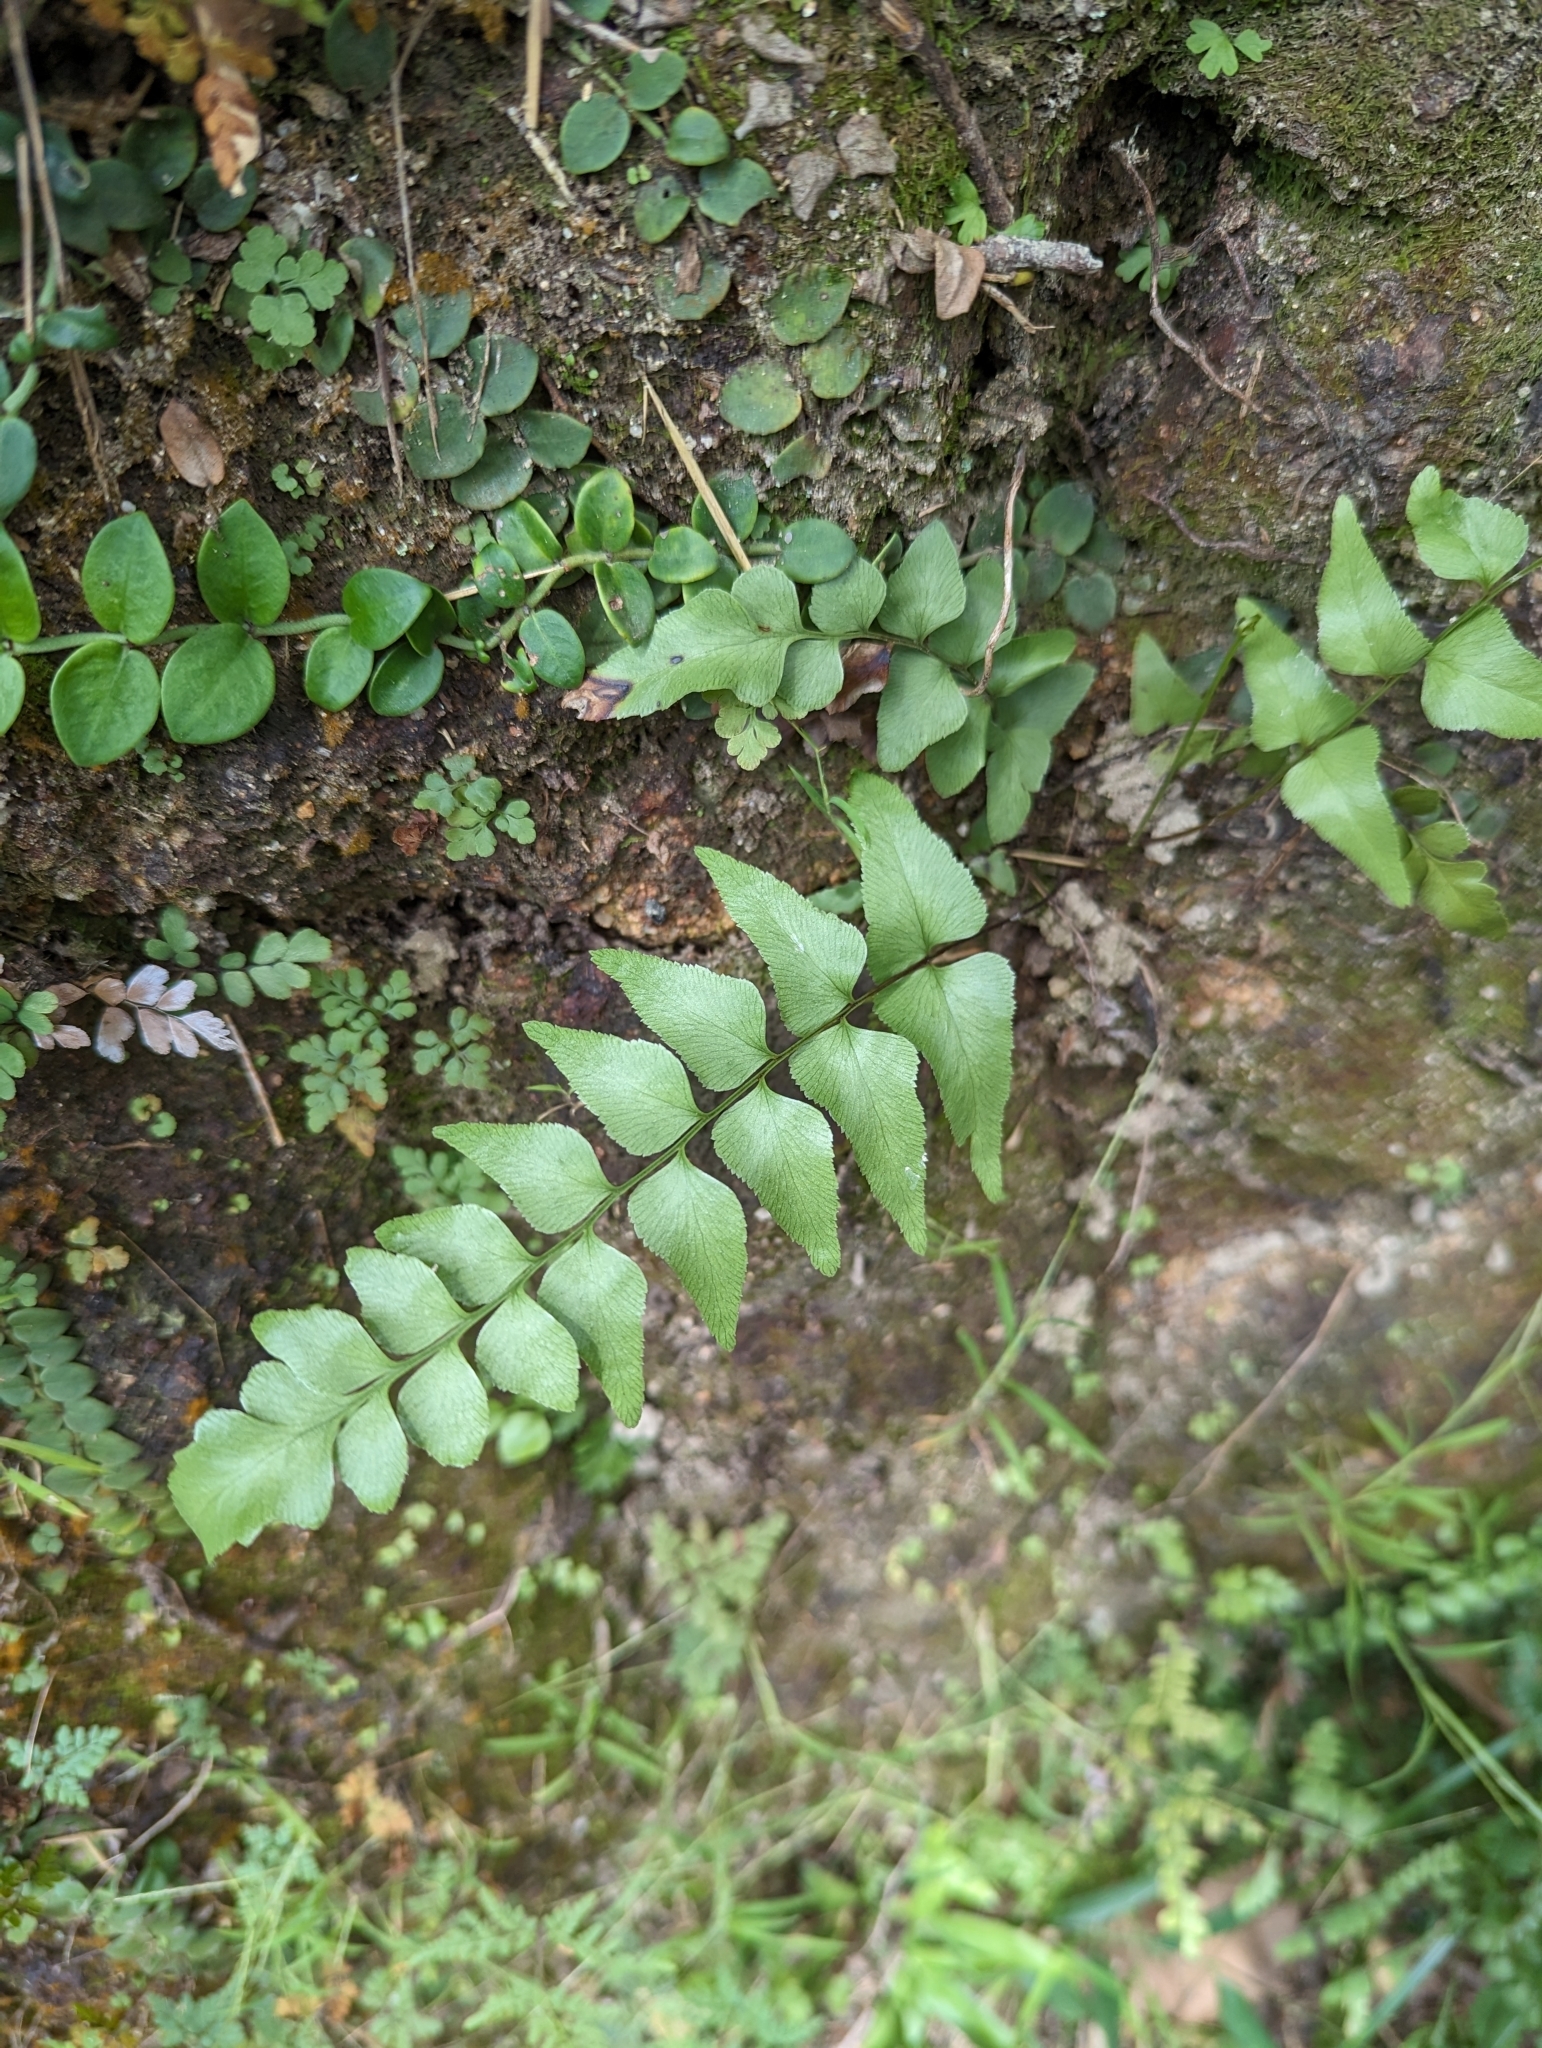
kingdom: Plantae
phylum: Tracheophyta
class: Polypodiopsida
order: Polypodiales
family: Dryopteridaceae
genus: Cyrtomium
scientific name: Cyrtomium fortunei
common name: Asian netvein hollyfern
